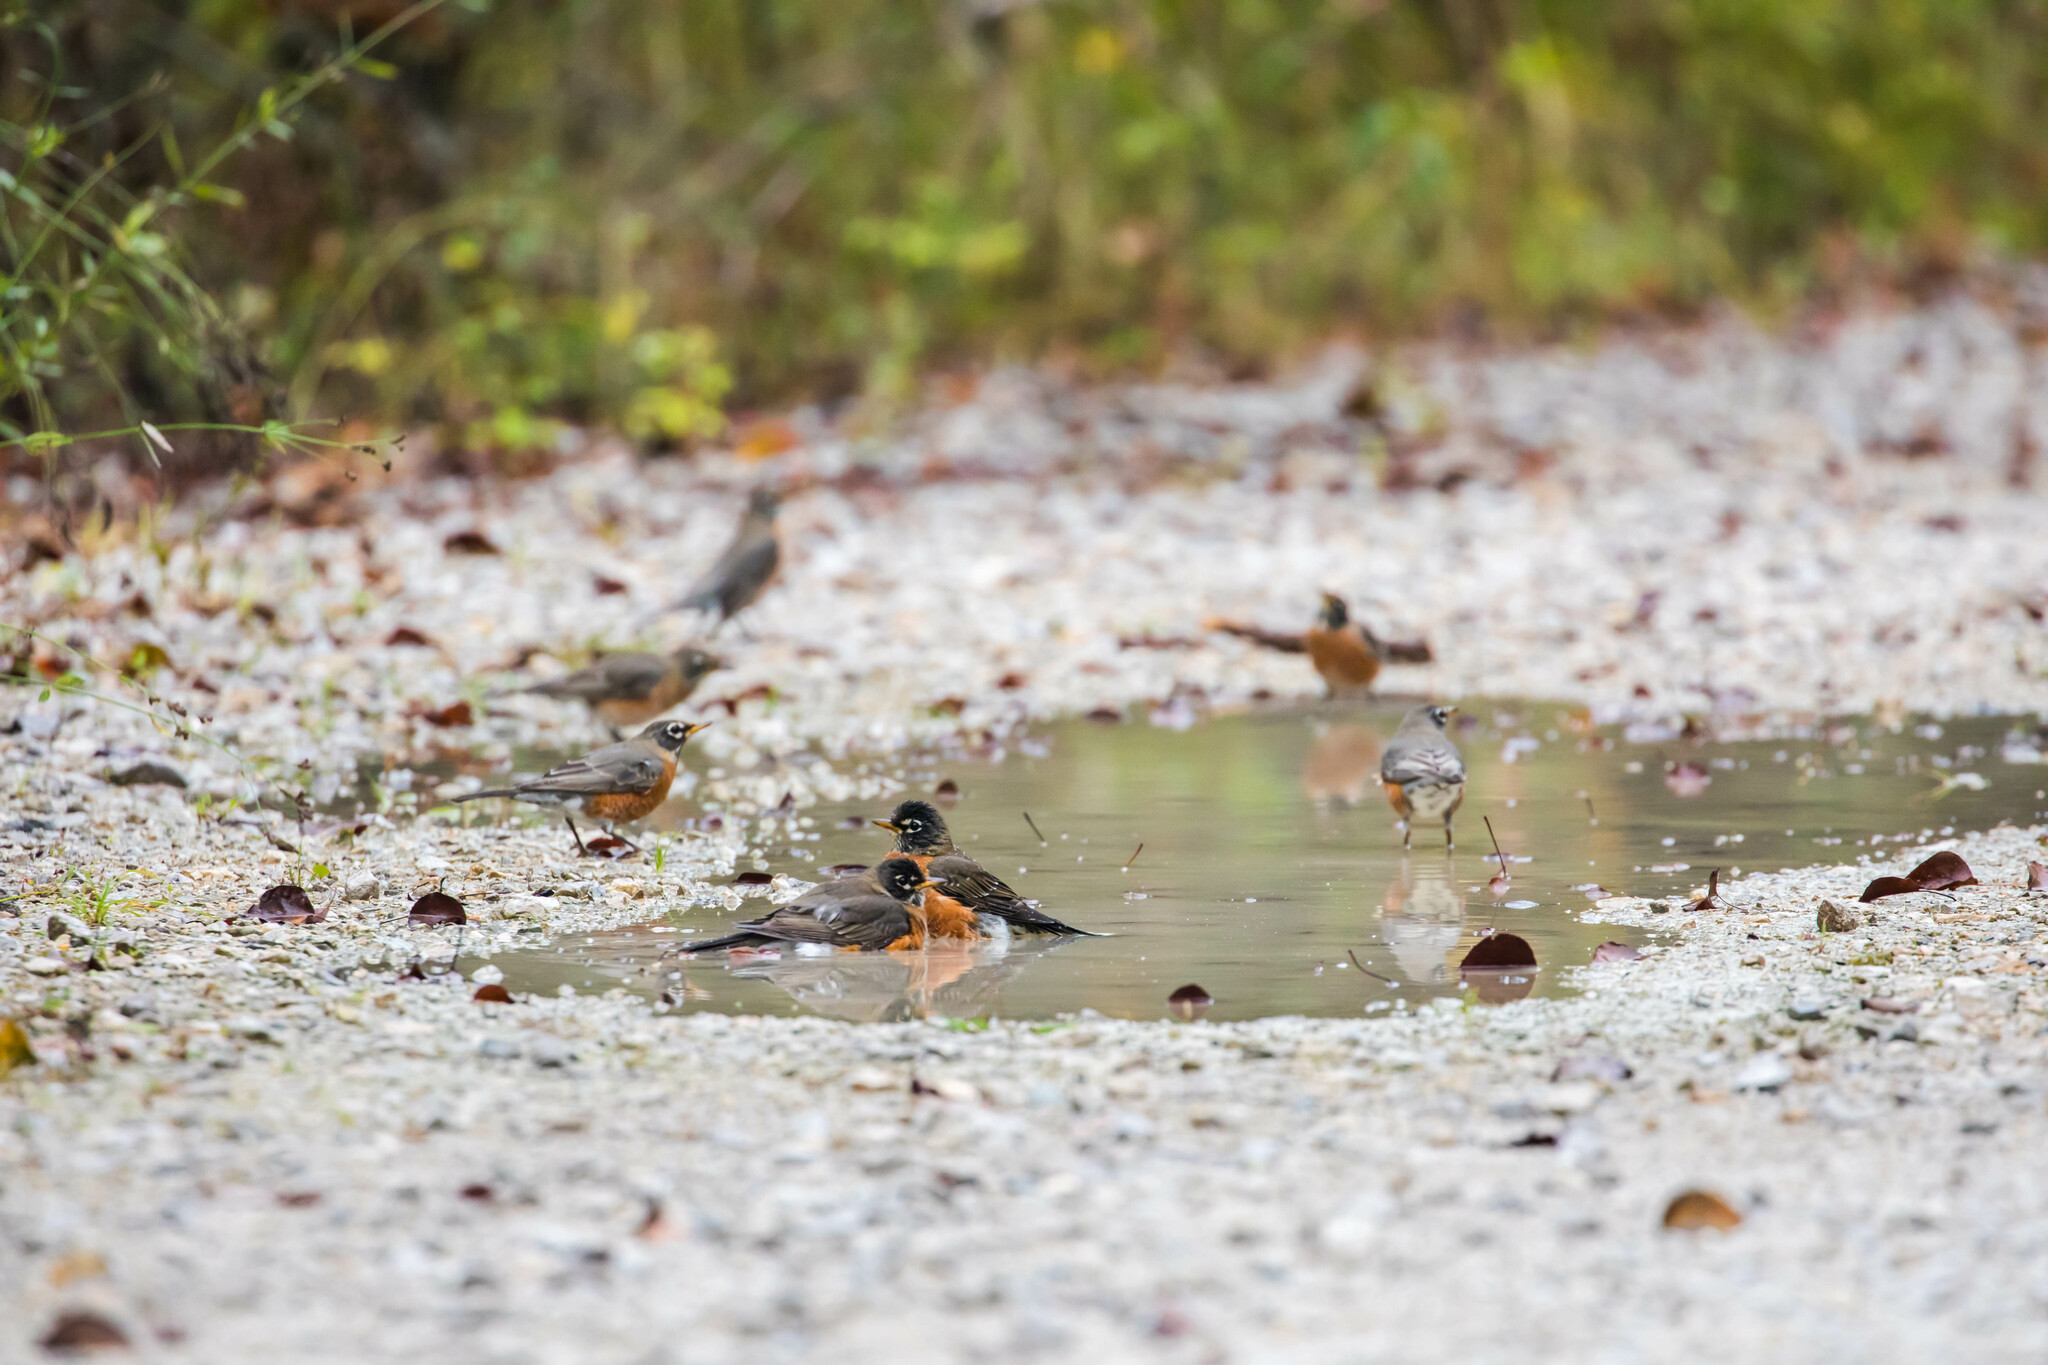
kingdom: Animalia
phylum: Chordata
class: Aves
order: Passeriformes
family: Turdidae
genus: Turdus
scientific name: Turdus migratorius
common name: American robin
